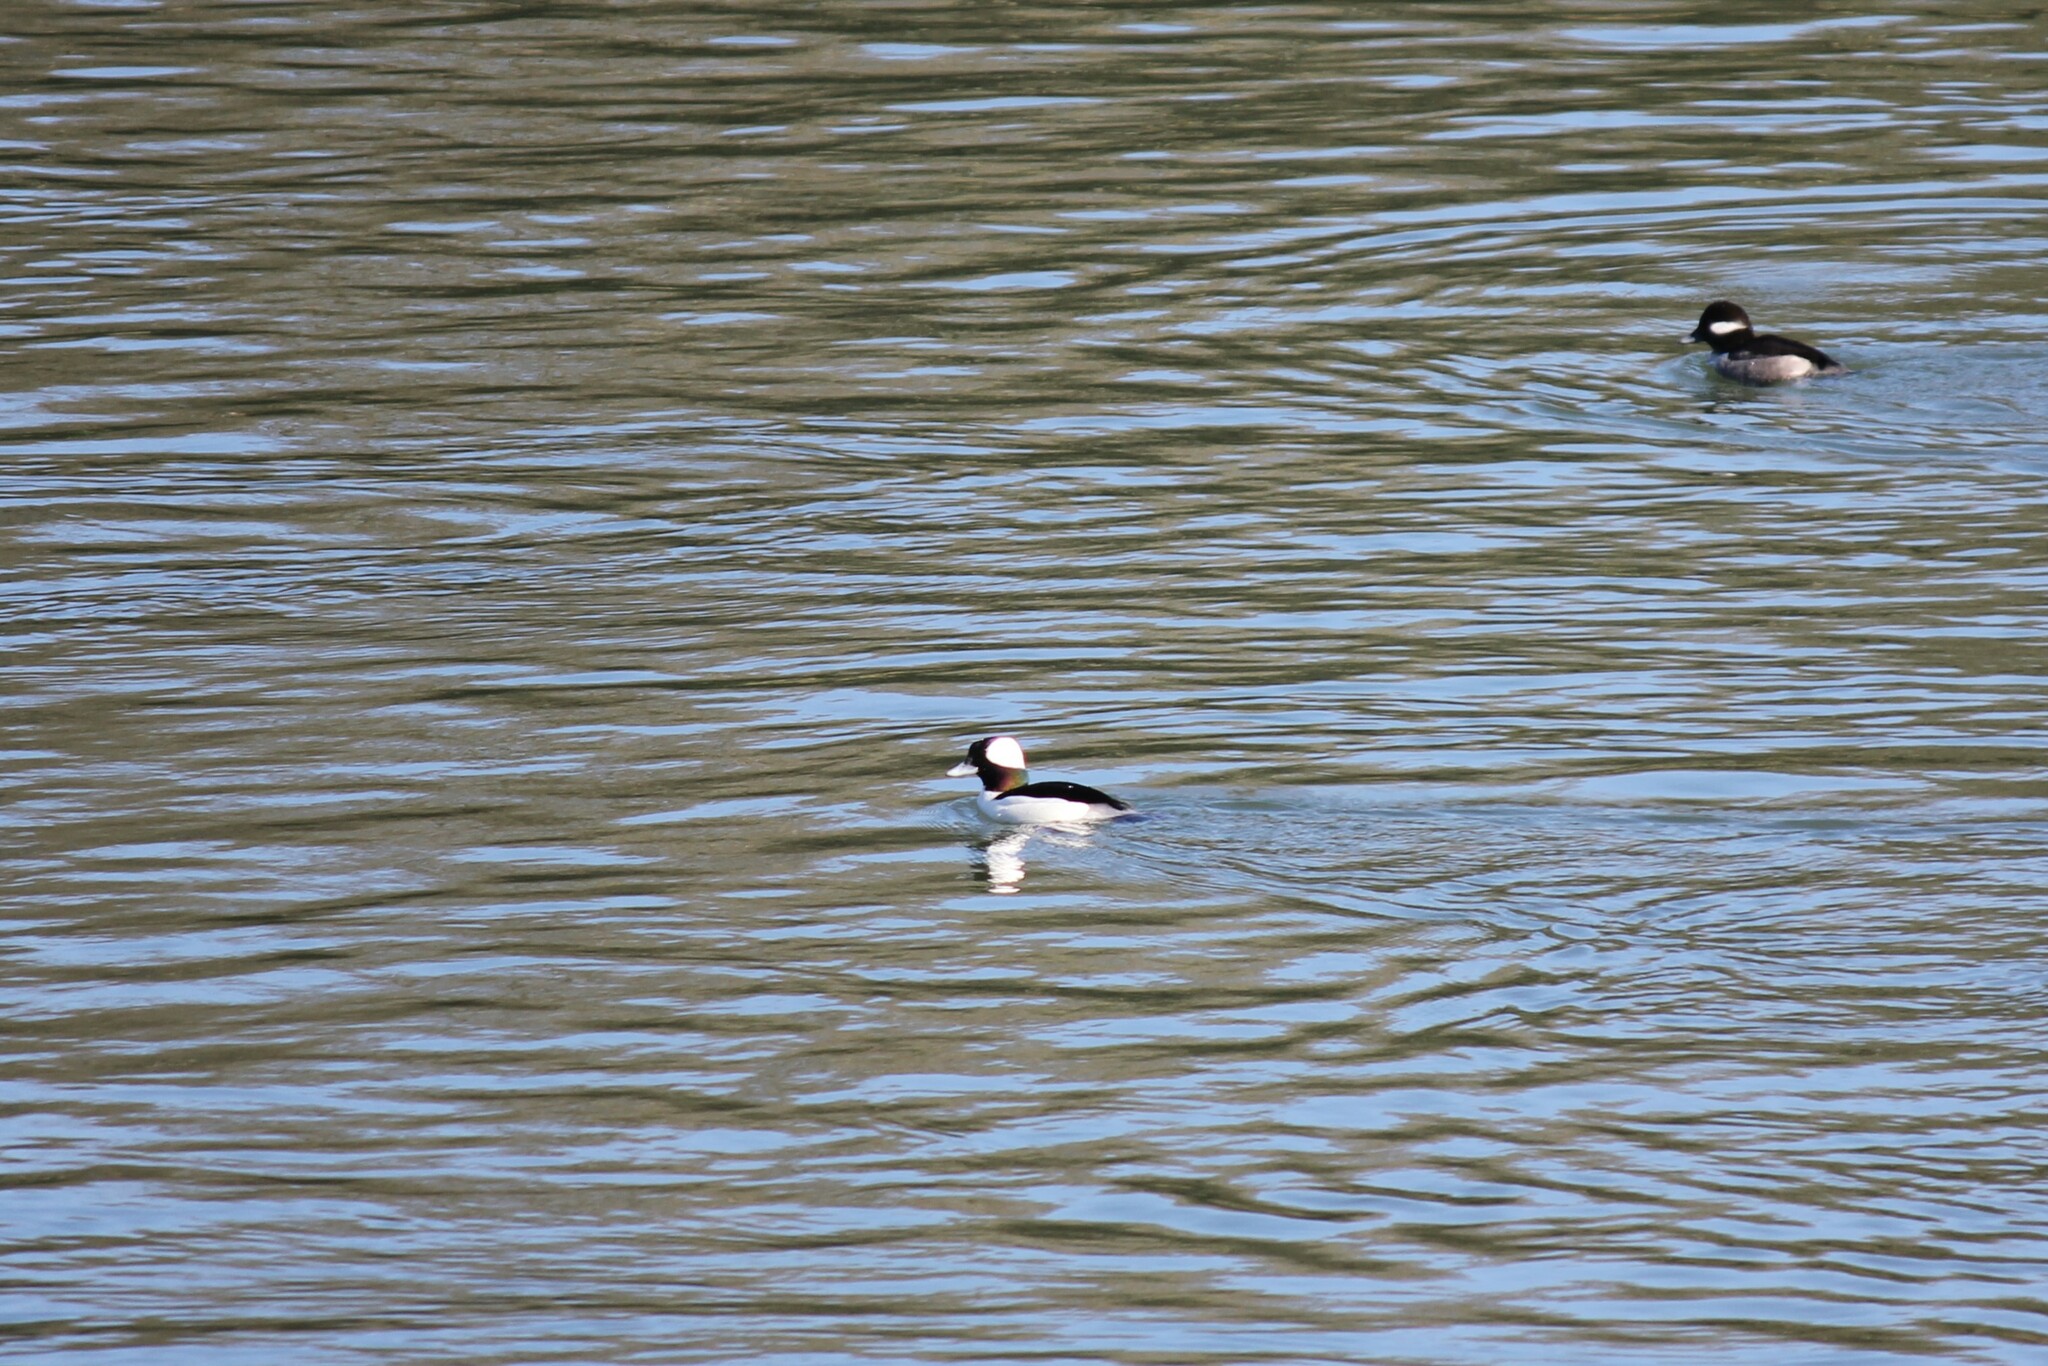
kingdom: Animalia
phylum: Chordata
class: Aves
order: Anseriformes
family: Anatidae
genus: Bucephala
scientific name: Bucephala albeola
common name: Bufflehead
